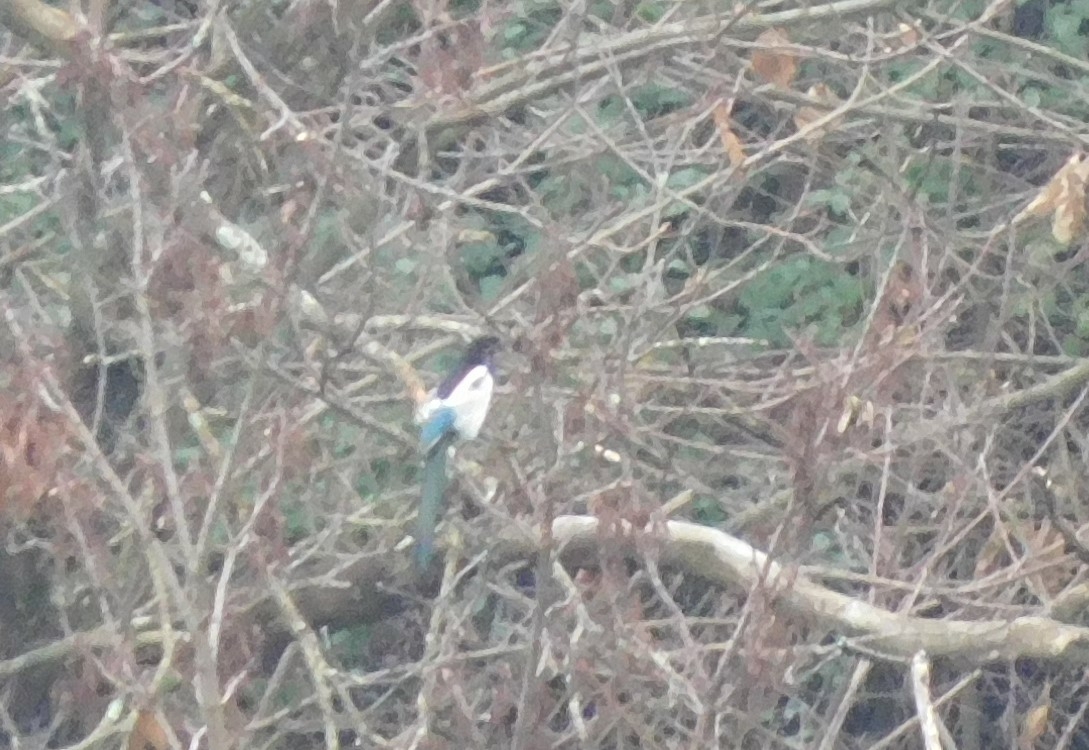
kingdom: Animalia
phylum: Chordata
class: Aves
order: Passeriformes
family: Corvidae
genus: Pica
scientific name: Pica pica
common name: Eurasian magpie
